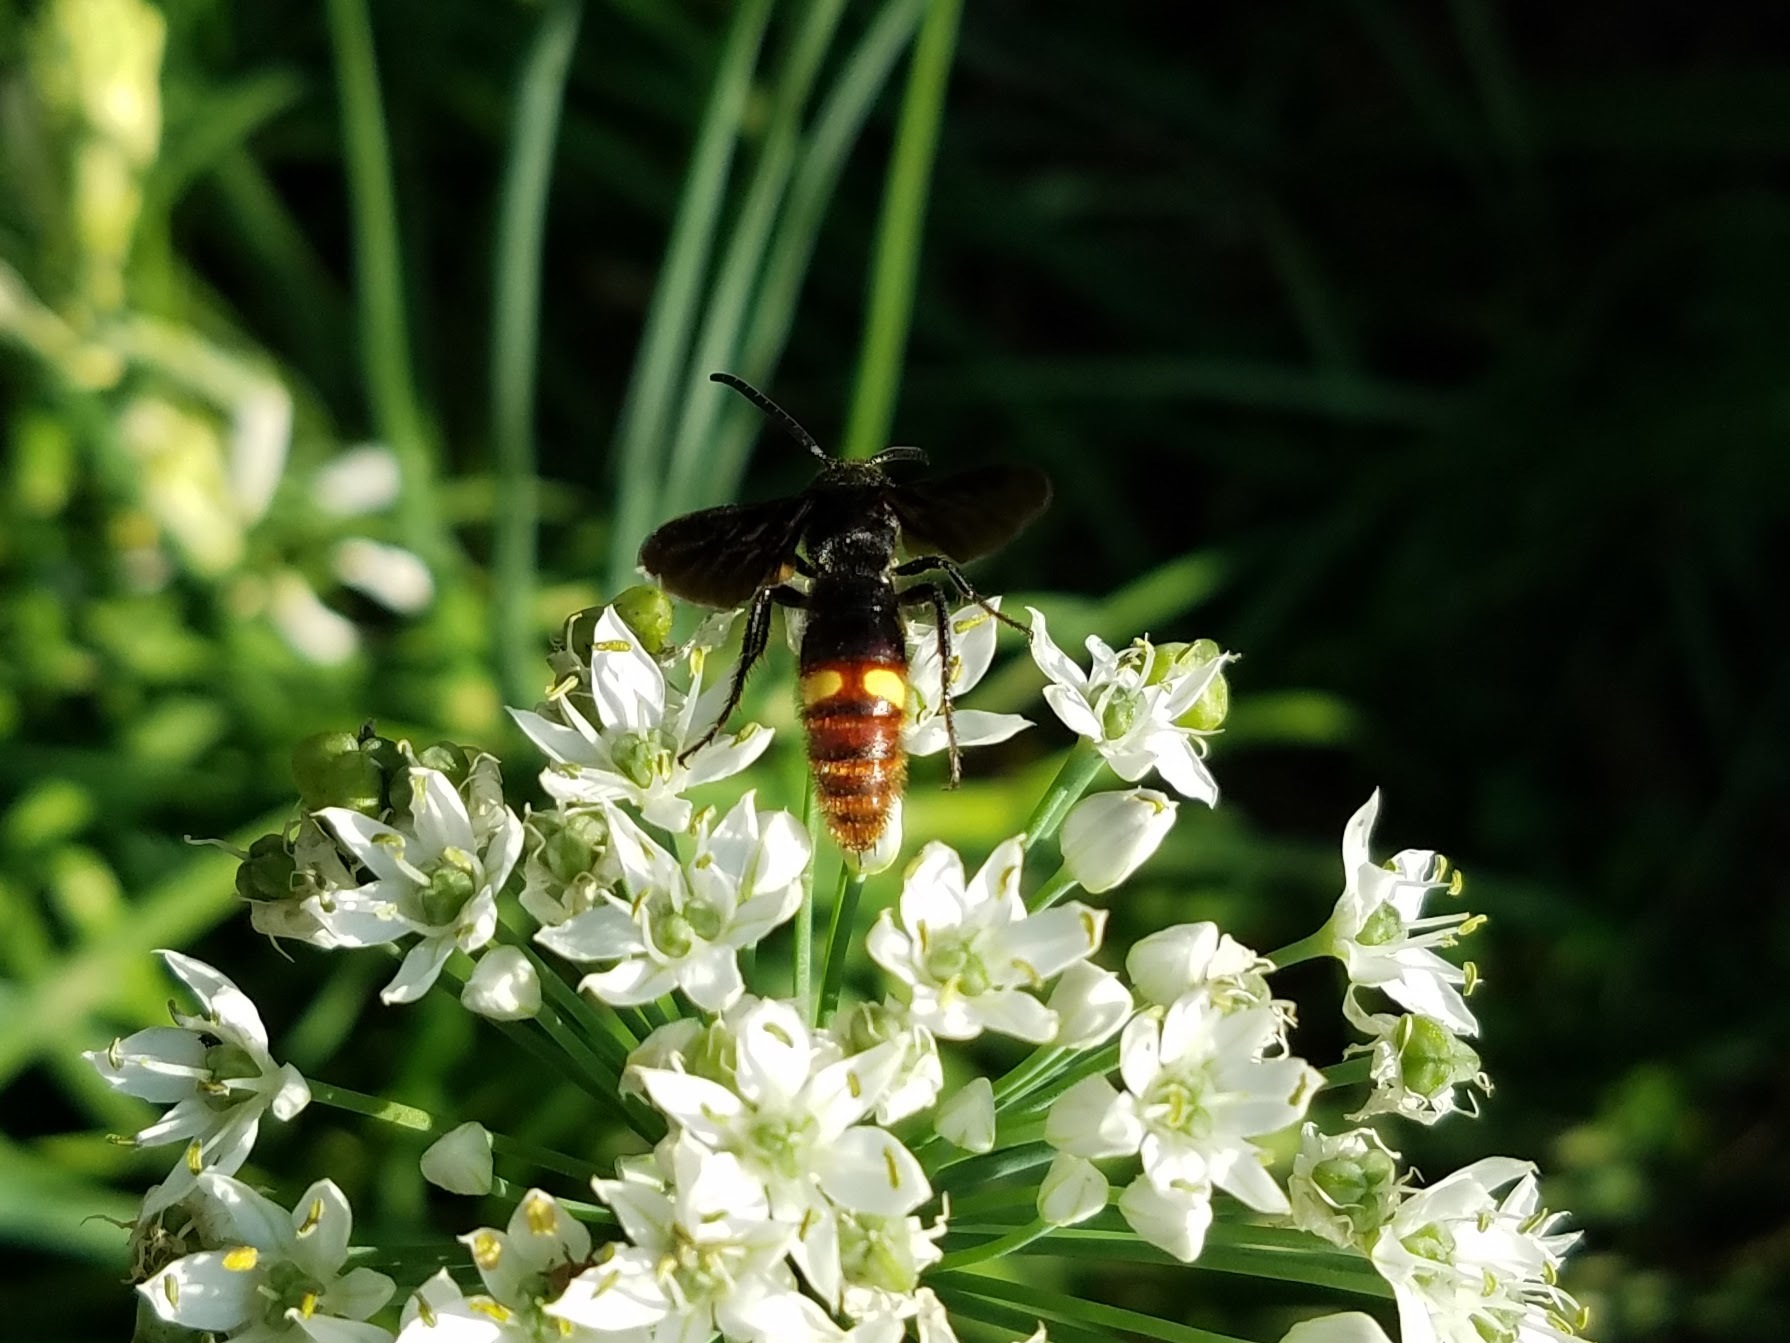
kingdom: Animalia
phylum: Arthropoda
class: Insecta
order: Hymenoptera
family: Scoliidae
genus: Scolia
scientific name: Scolia dubia
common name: Blue-winged scoliid wasp
